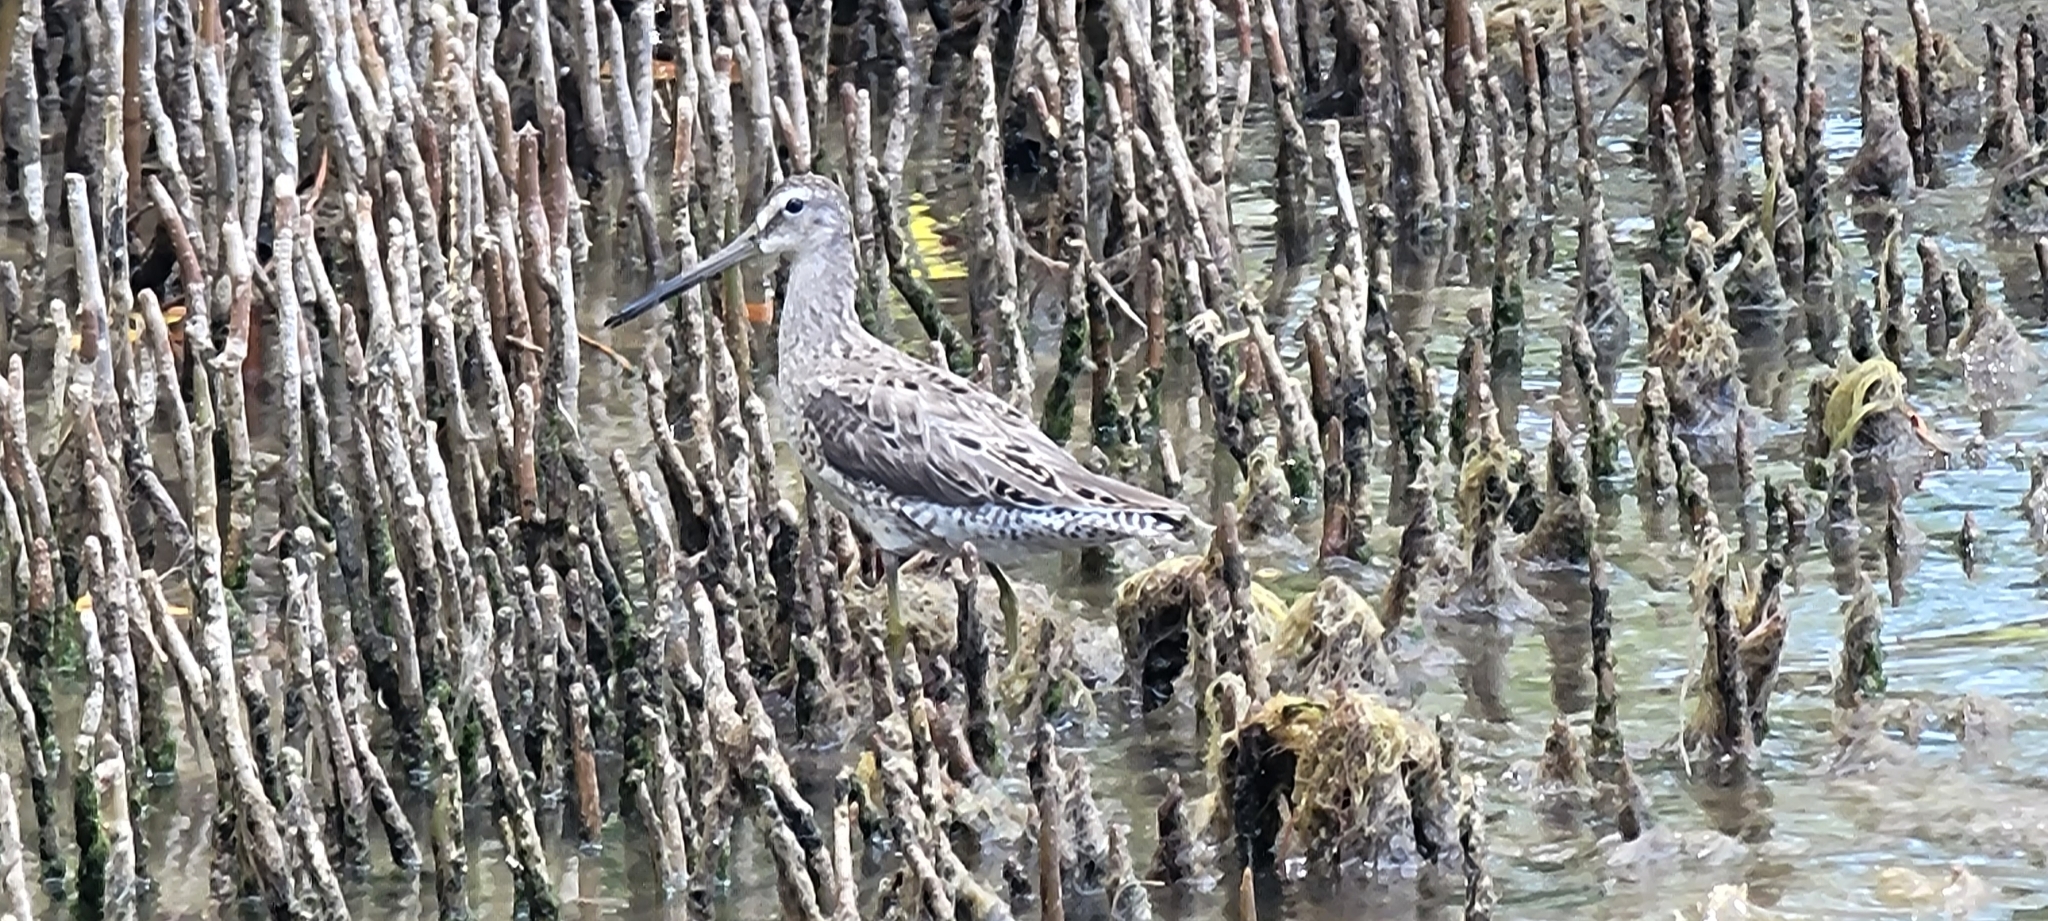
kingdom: Animalia
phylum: Chordata
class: Aves
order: Charadriiformes
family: Scolopacidae
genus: Limnodromus
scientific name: Limnodromus griseus
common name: Short-billed dowitcher
